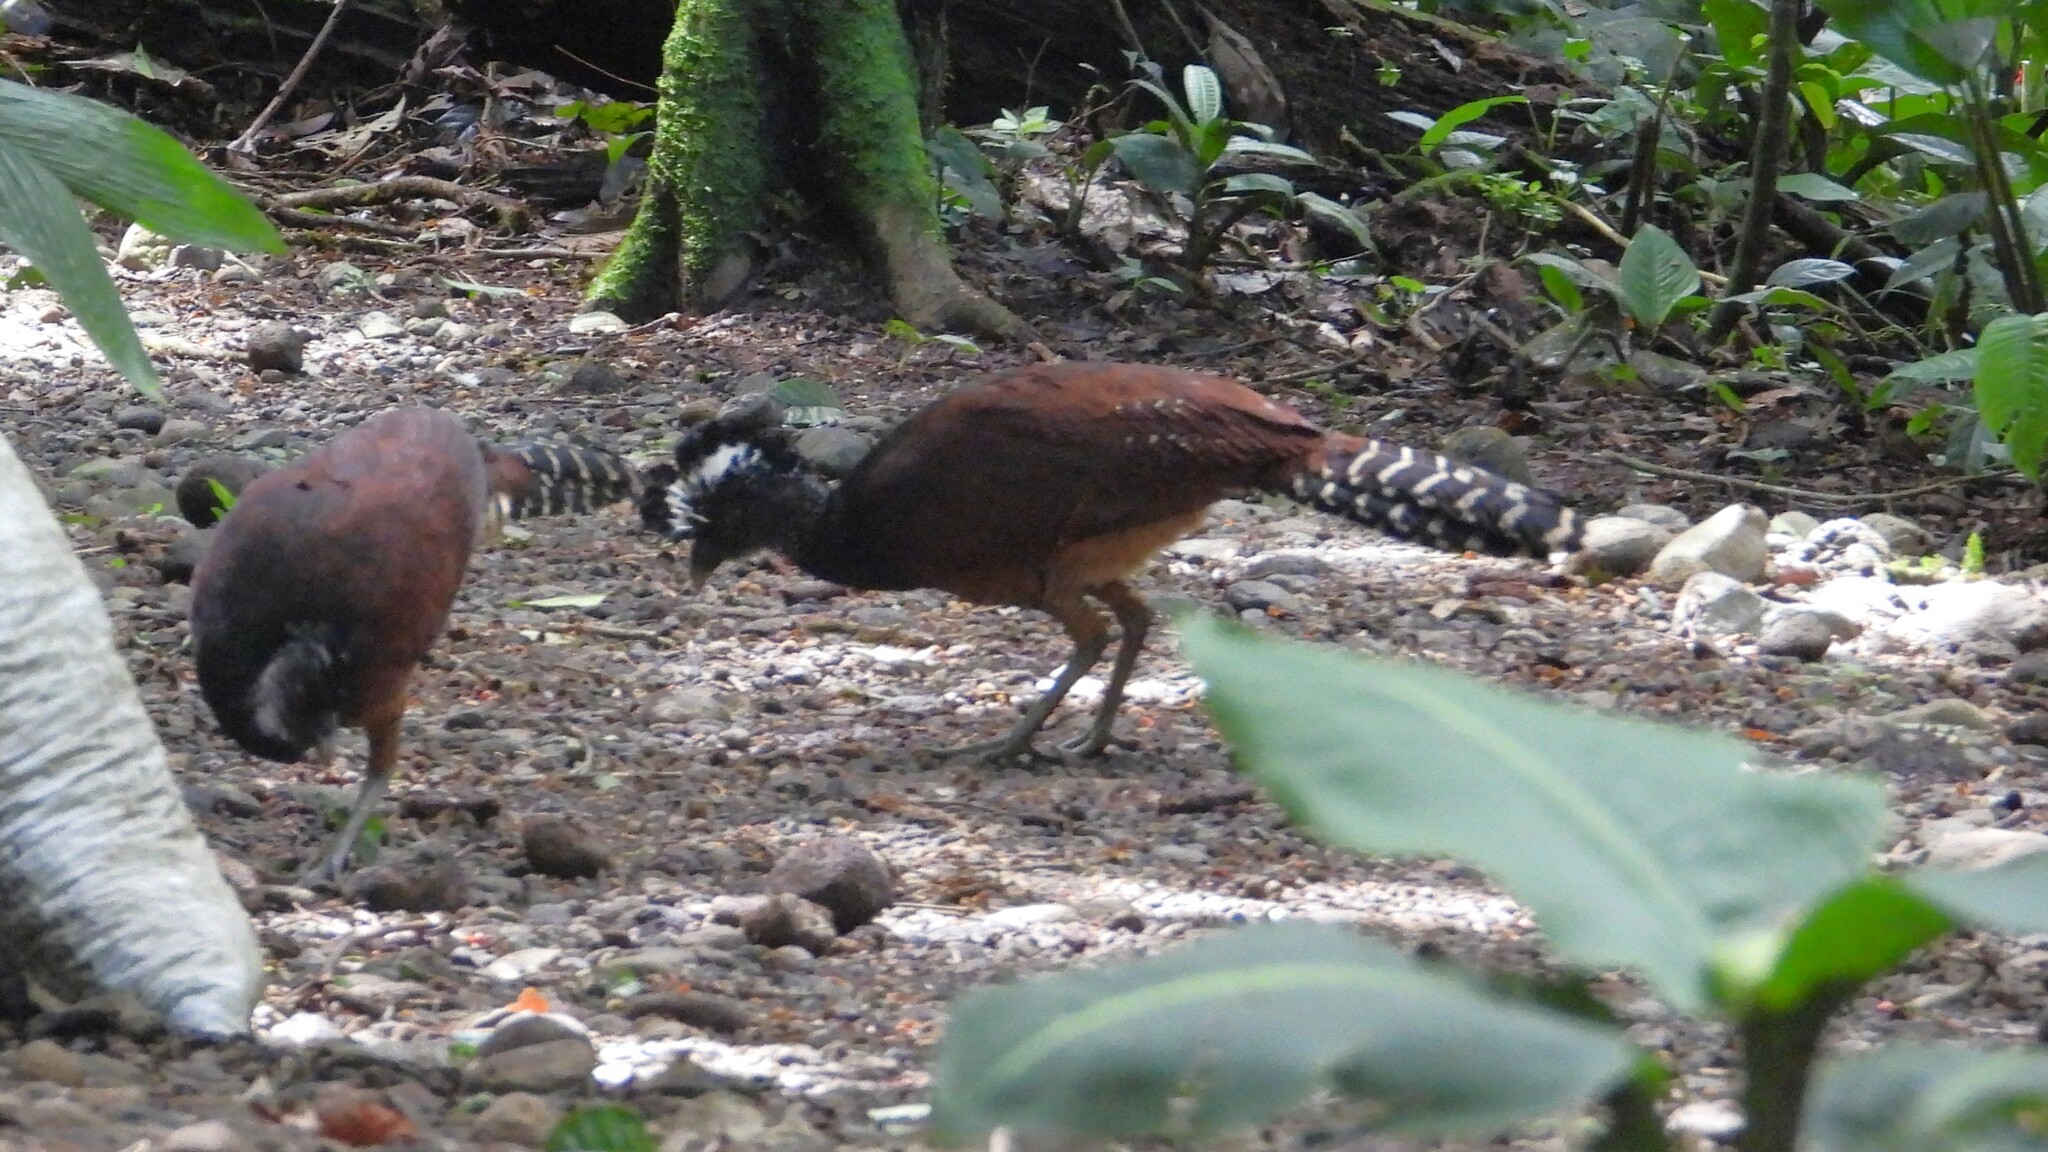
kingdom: Animalia
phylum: Chordata
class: Aves
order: Galliformes
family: Cracidae
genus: Crax
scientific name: Crax rubra
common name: Great curassow
